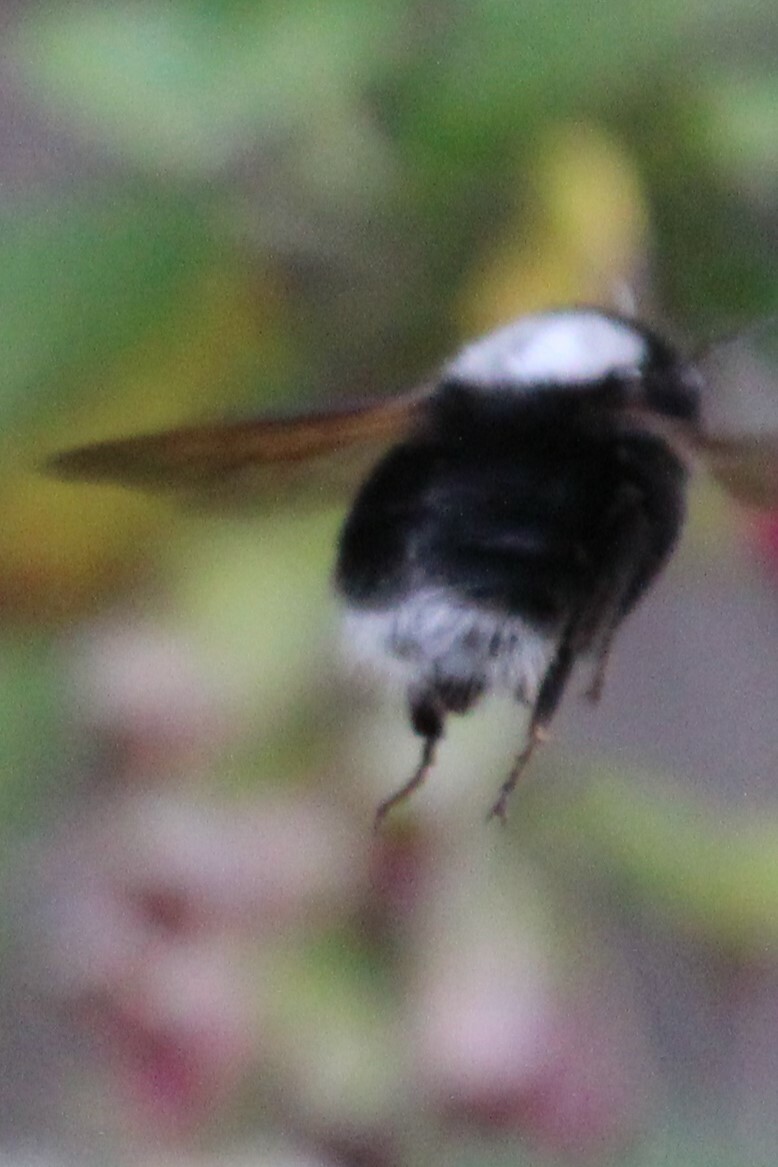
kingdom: Animalia
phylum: Arthropoda
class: Insecta
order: Hymenoptera
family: Apidae
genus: Bombus
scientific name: Bombus funebris
